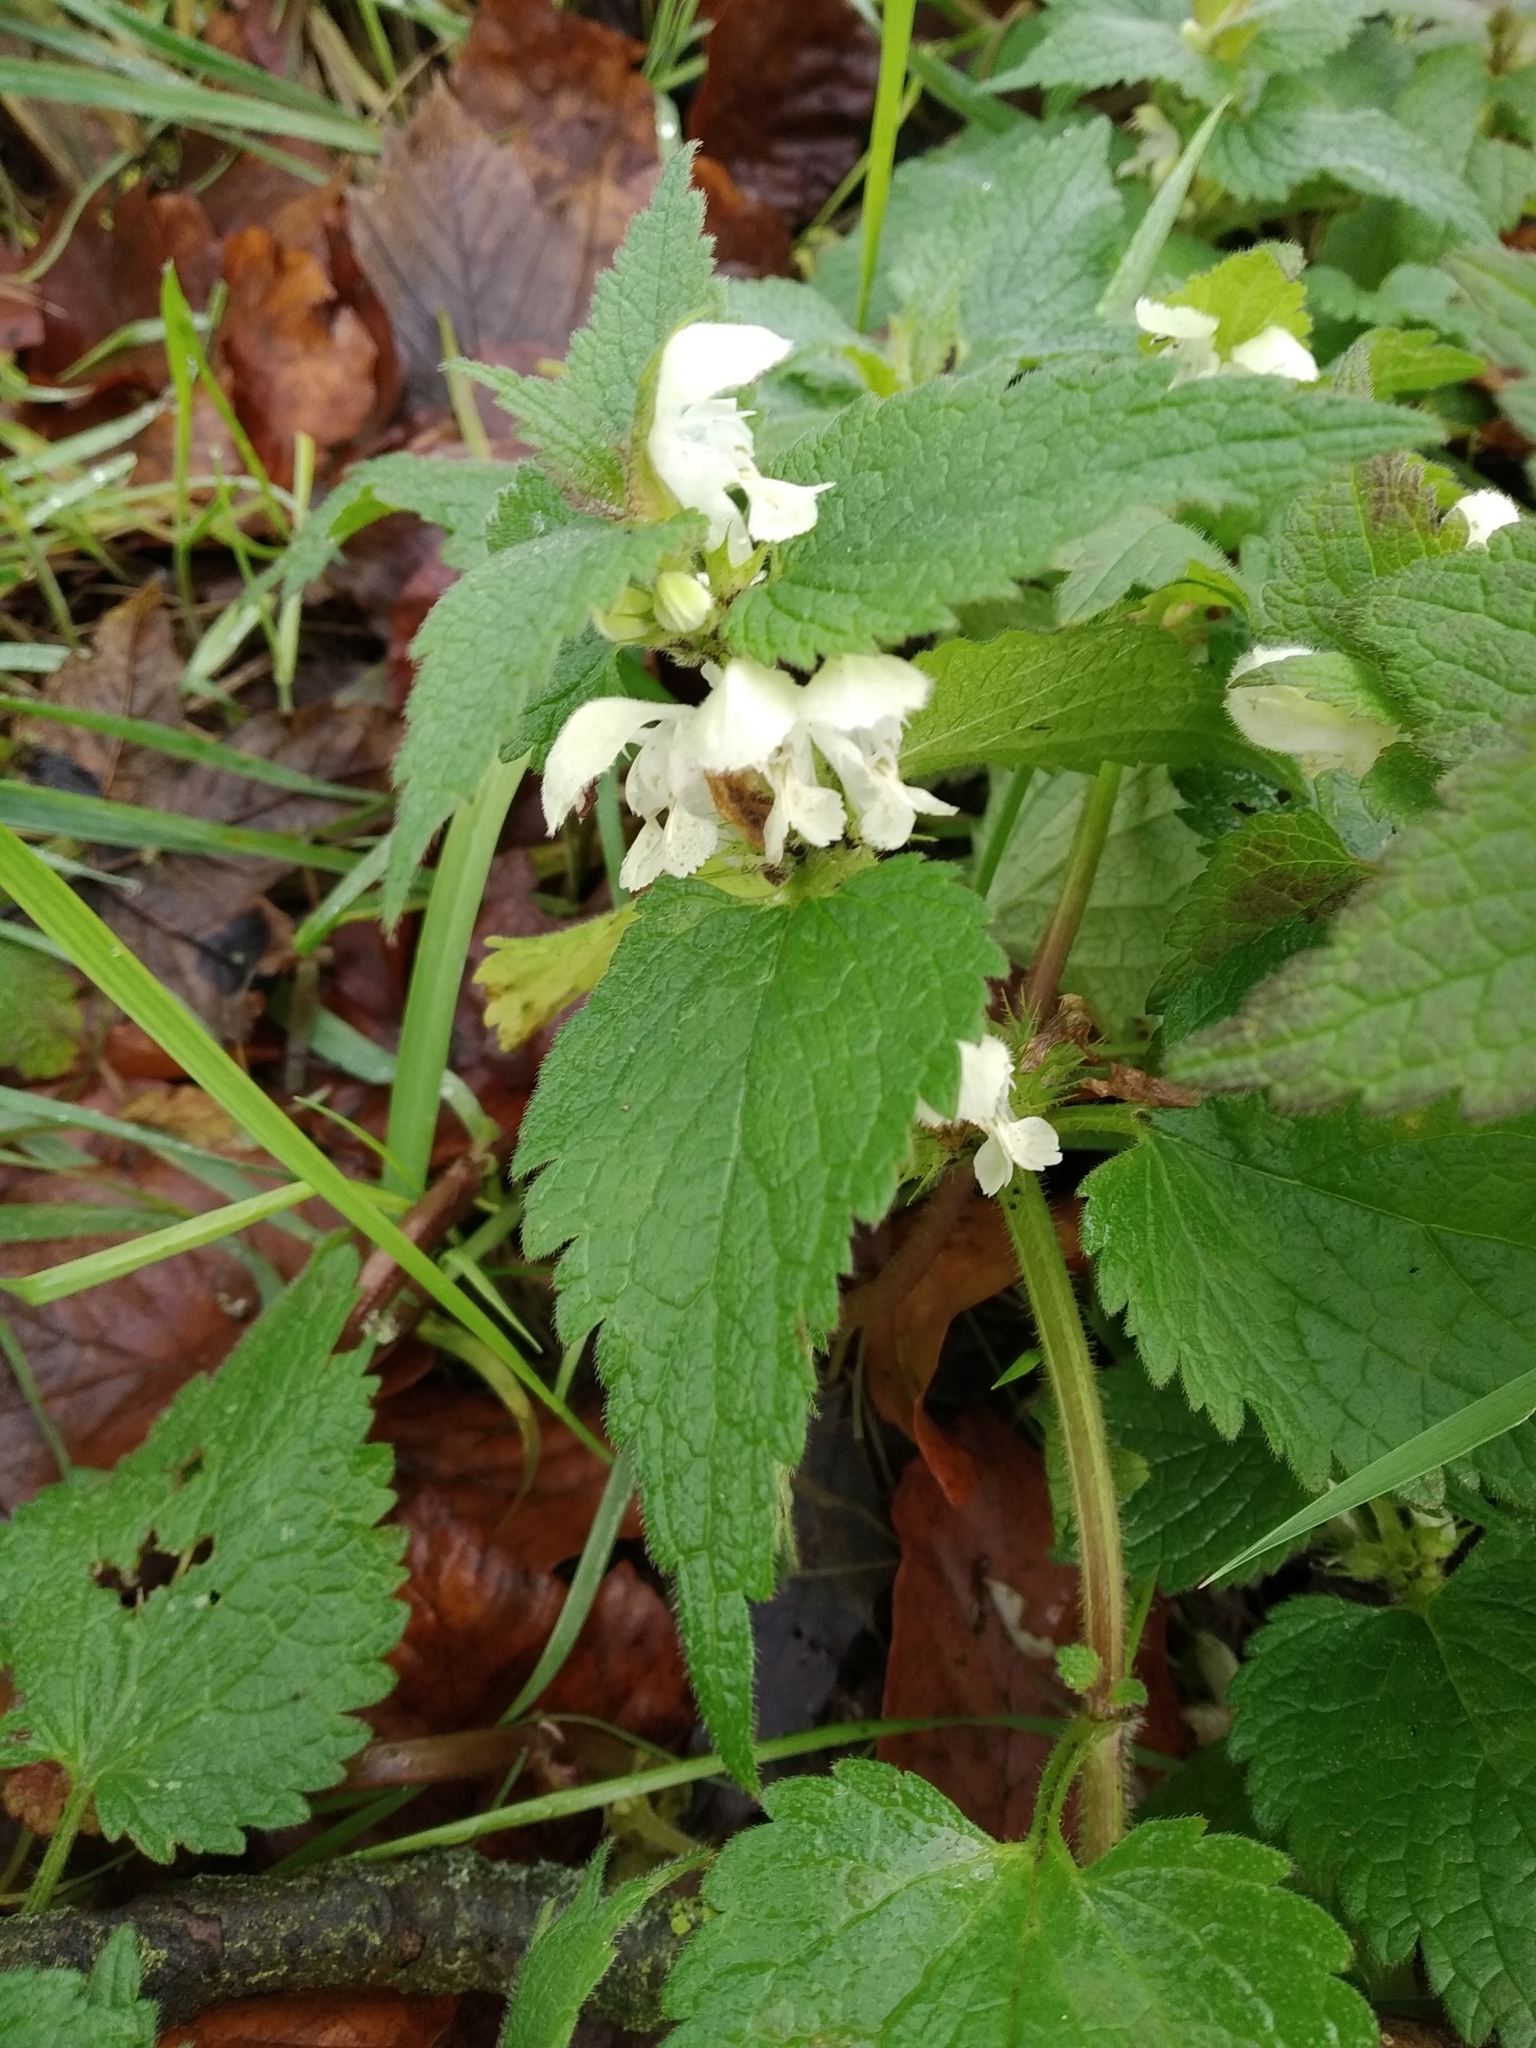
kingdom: Plantae
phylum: Tracheophyta
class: Magnoliopsida
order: Lamiales
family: Lamiaceae
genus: Lamium
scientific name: Lamium album
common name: White dead-nettle
